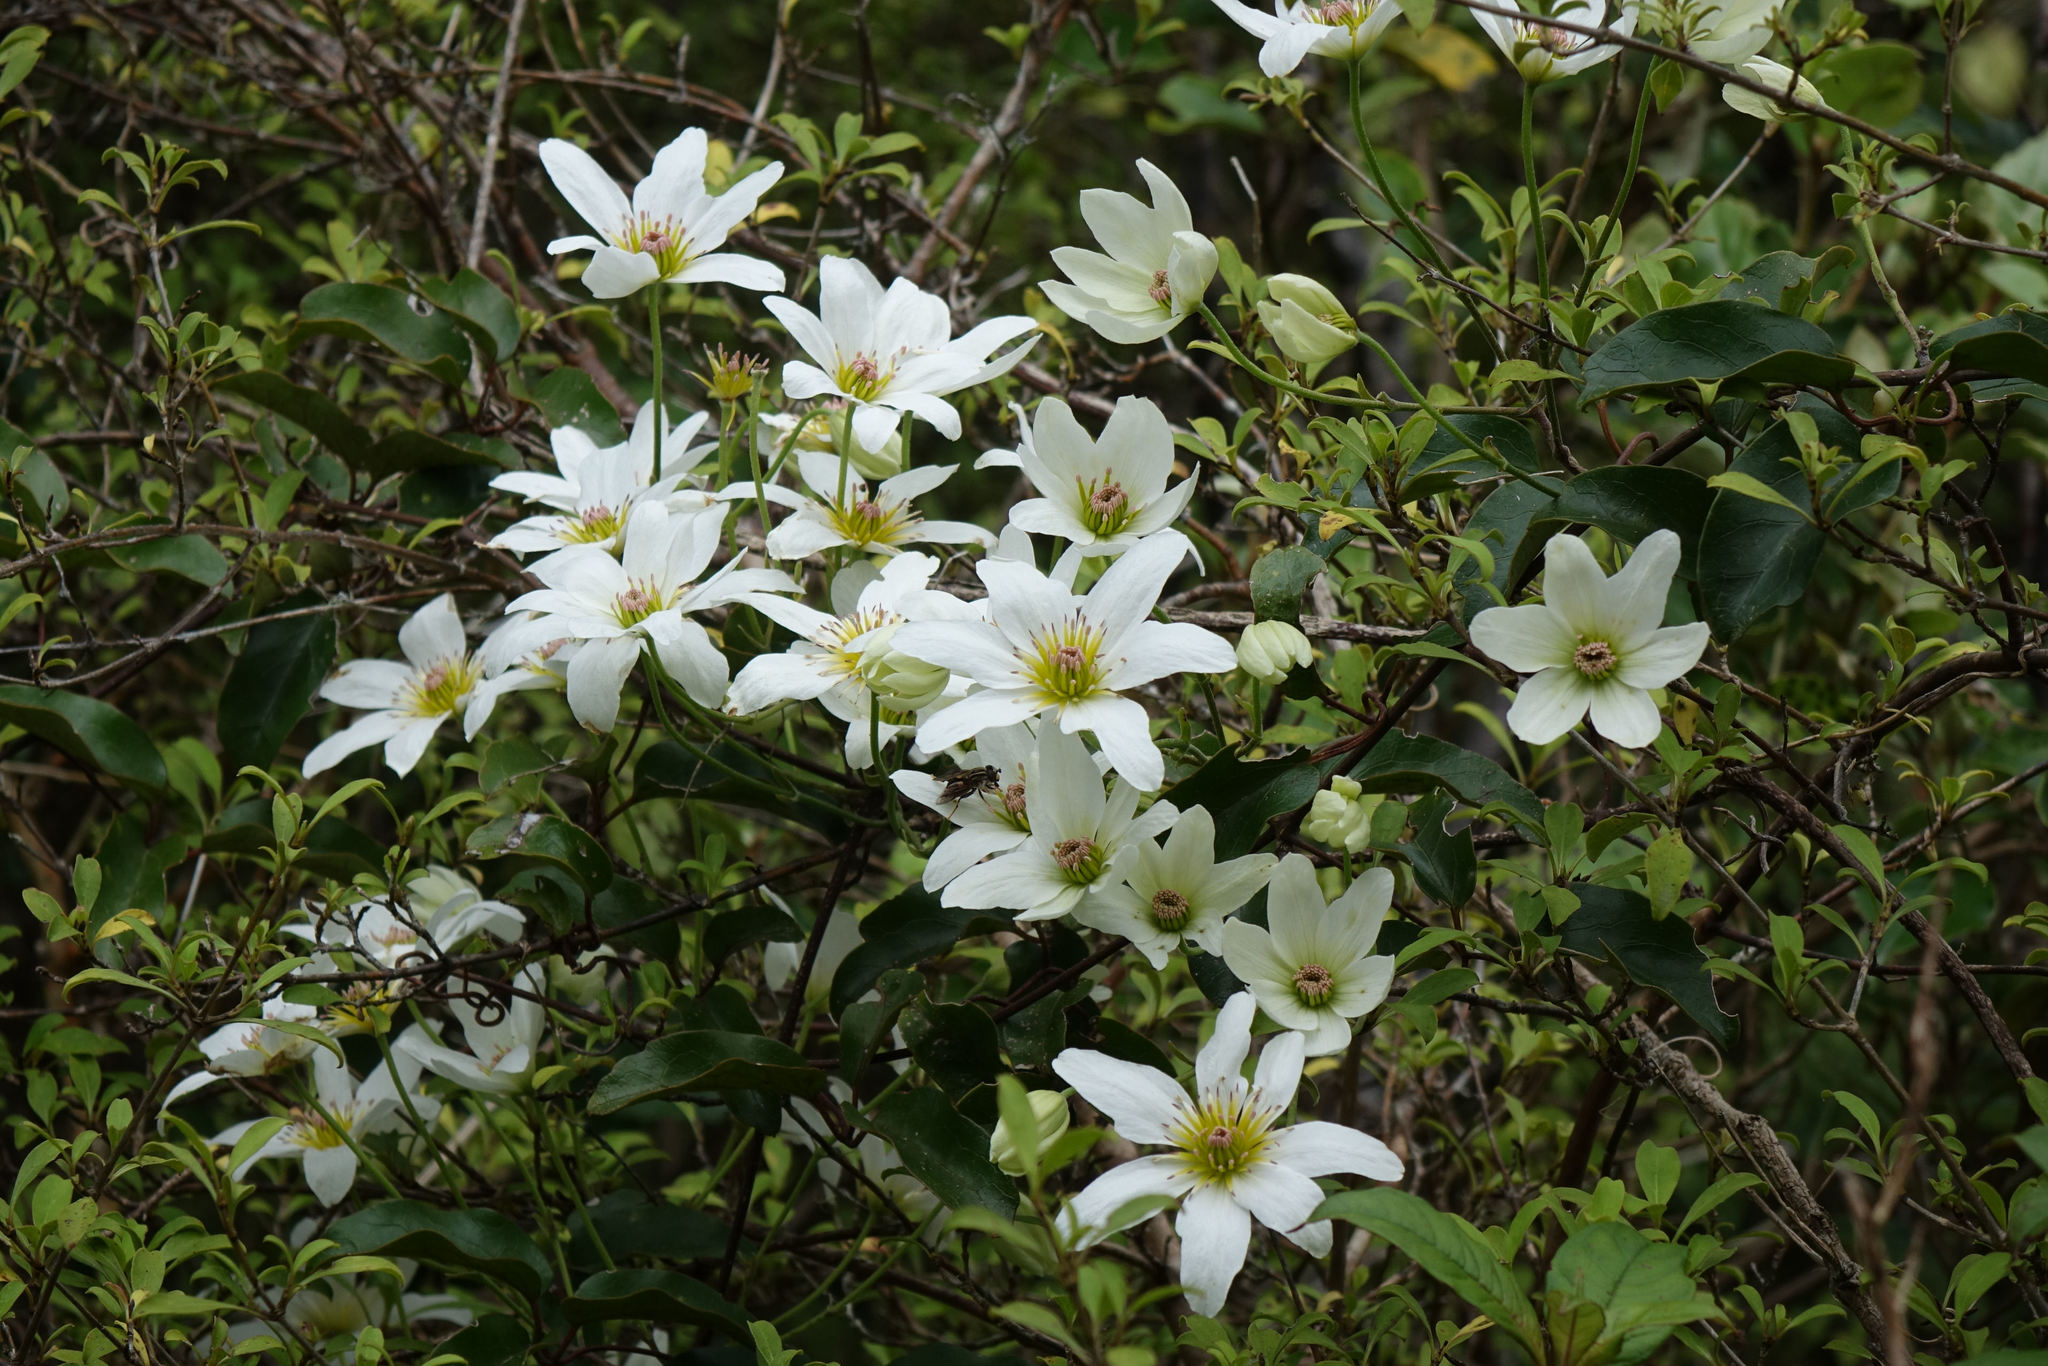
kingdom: Plantae
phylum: Tracheophyta
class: Magnoliopsida
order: Ranunculales
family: Ranunculaceae
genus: Clematis
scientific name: Clematis paniculata
